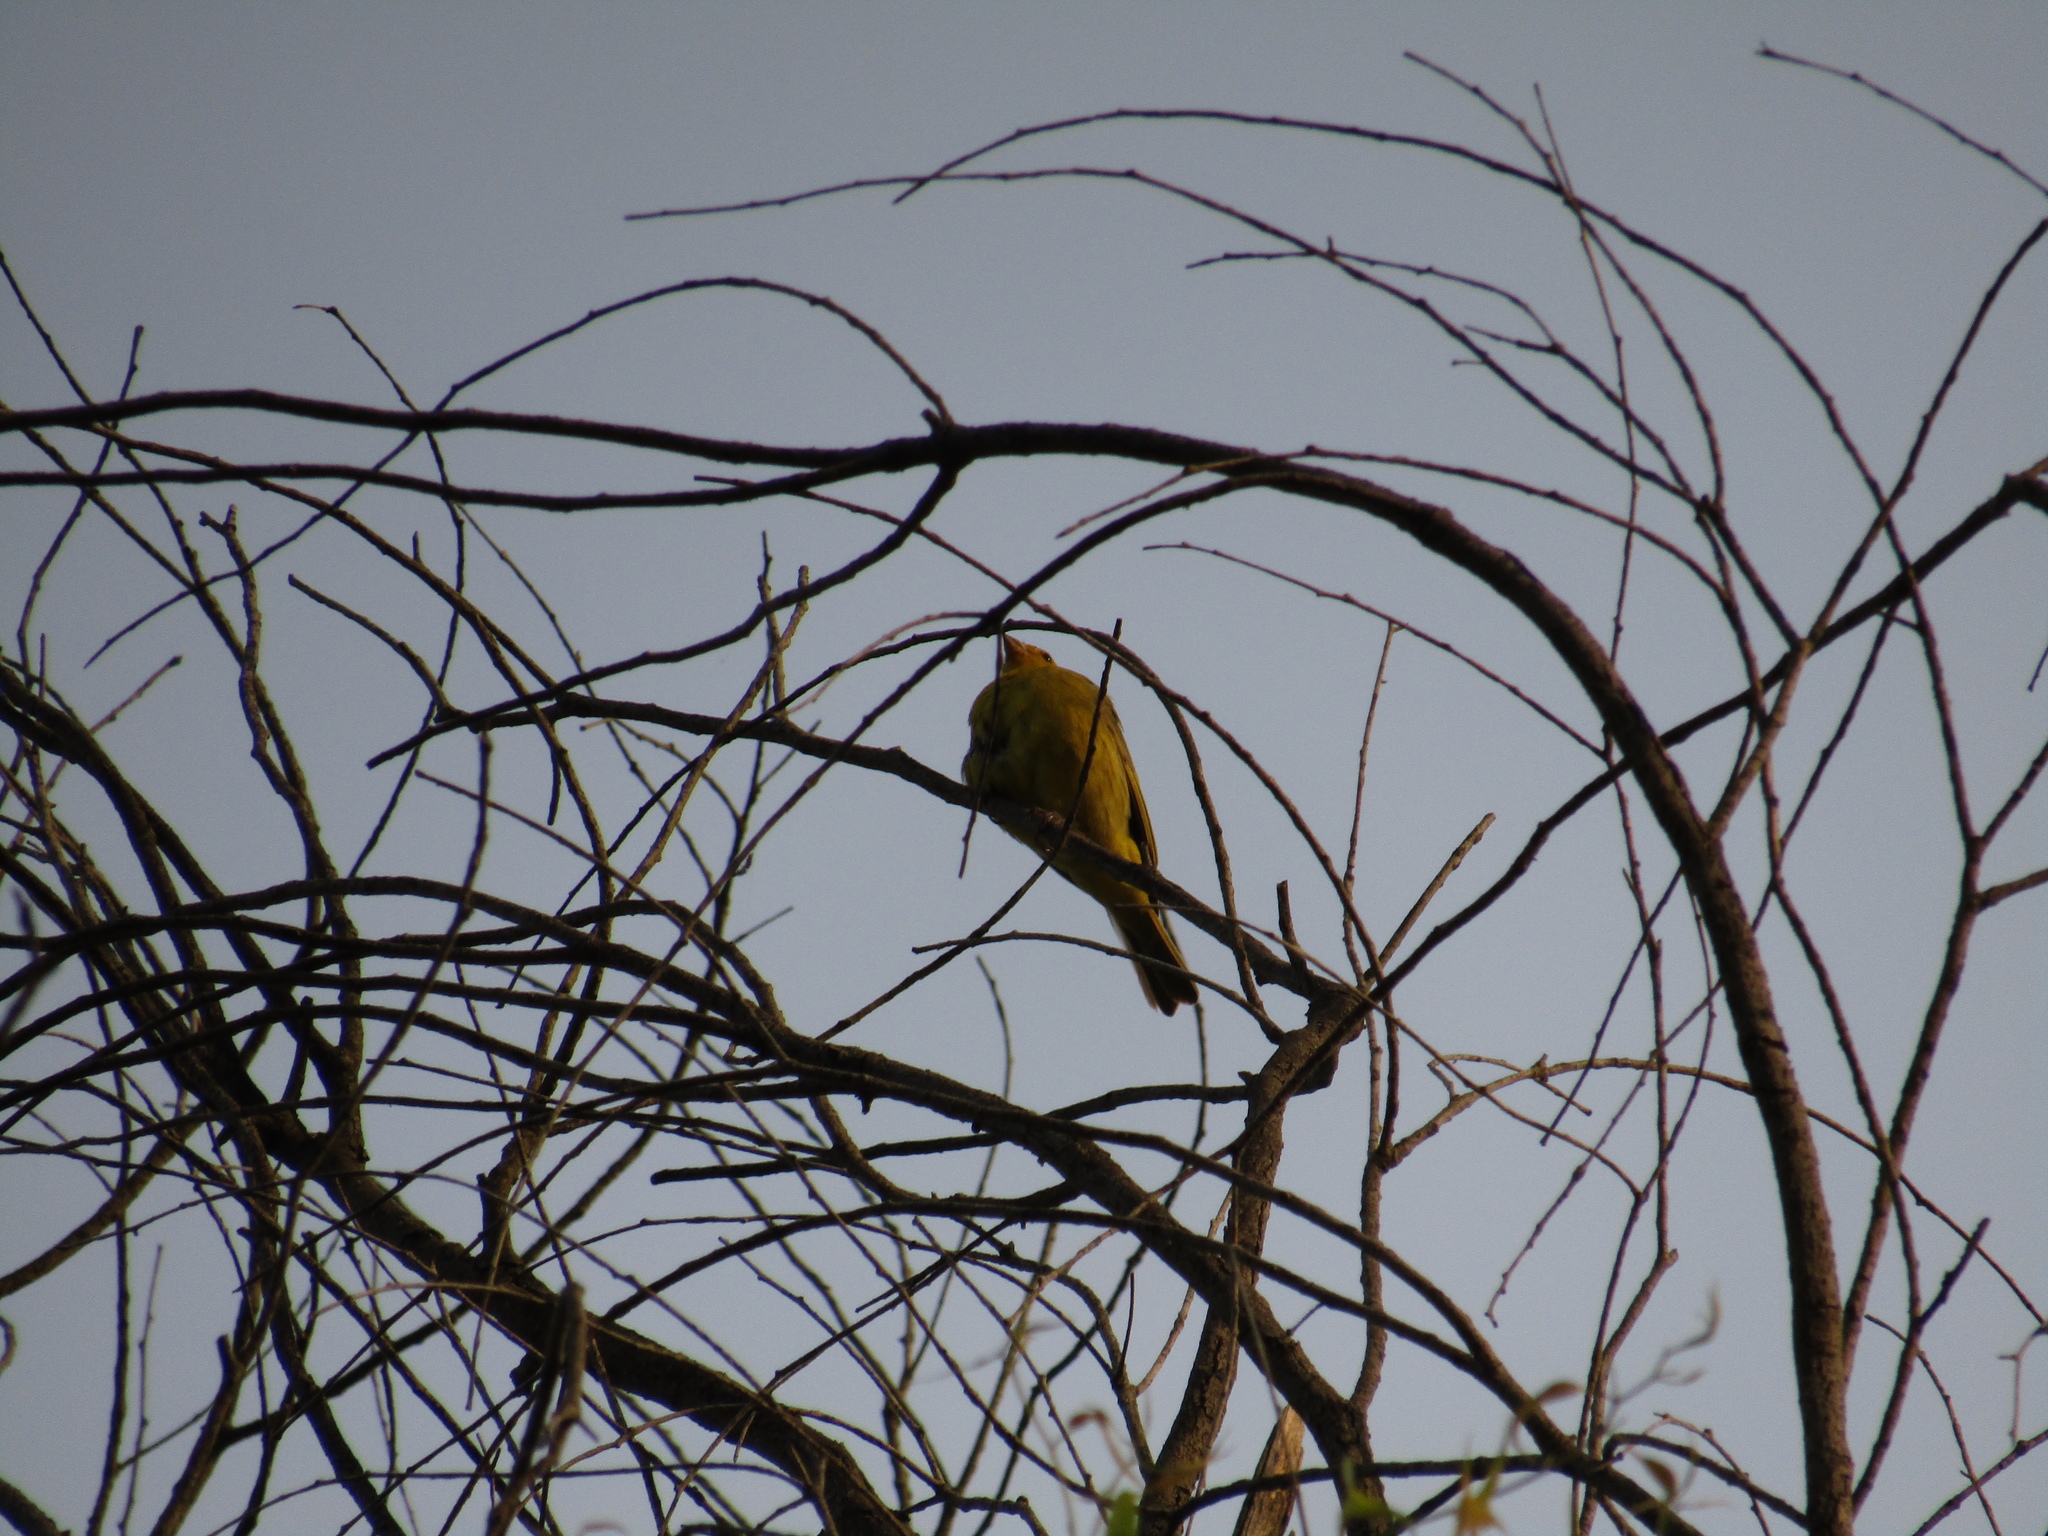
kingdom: Animalia
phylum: Chordata
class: Aves
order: Passeriformes
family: Thraupidae
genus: Sicalis
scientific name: Sicalis flaveola
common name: Saffron finch
